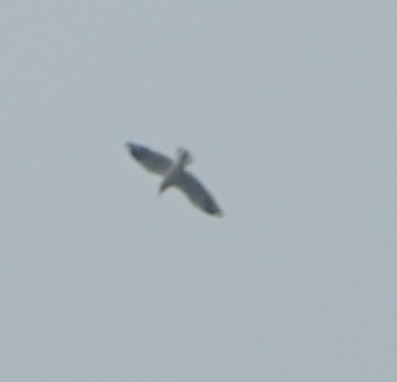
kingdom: Animalia
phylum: Chordata
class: Aves
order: Charadriiformes
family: Laridae
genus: Chroicocephalus
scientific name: Chroicocephalus novaehollandiae
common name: Silver gull
